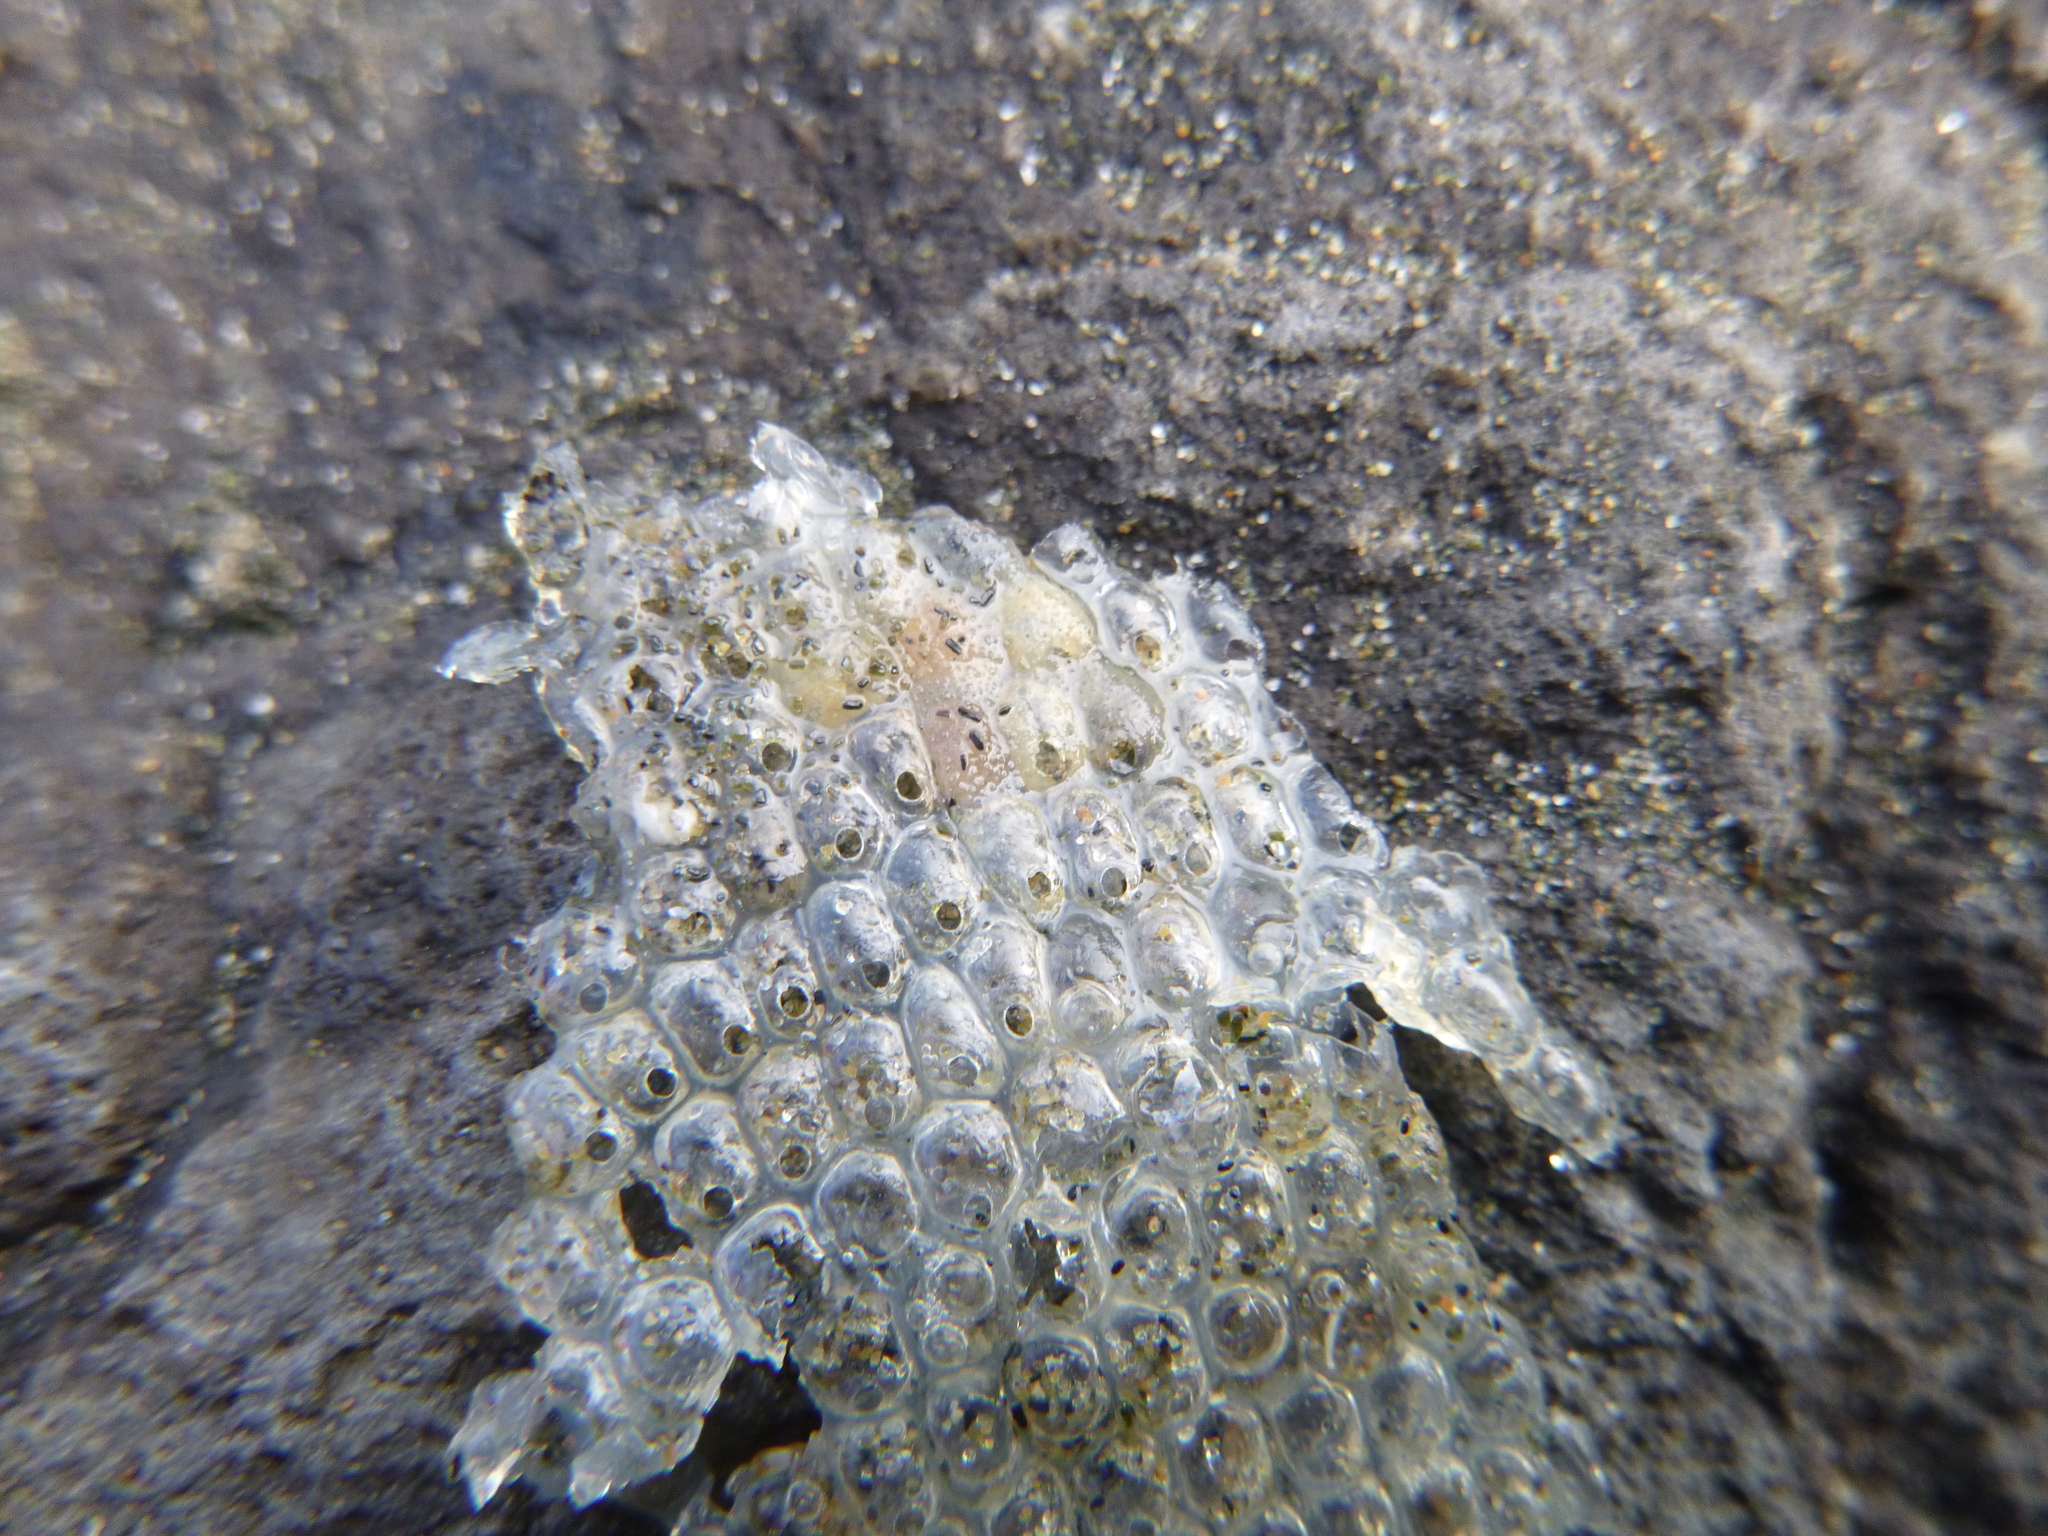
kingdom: Animalia
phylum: Mollusca
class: Gastropoda
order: Littorinimorpha
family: Tonnidae
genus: Tonna
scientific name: Tonna tankervillii
